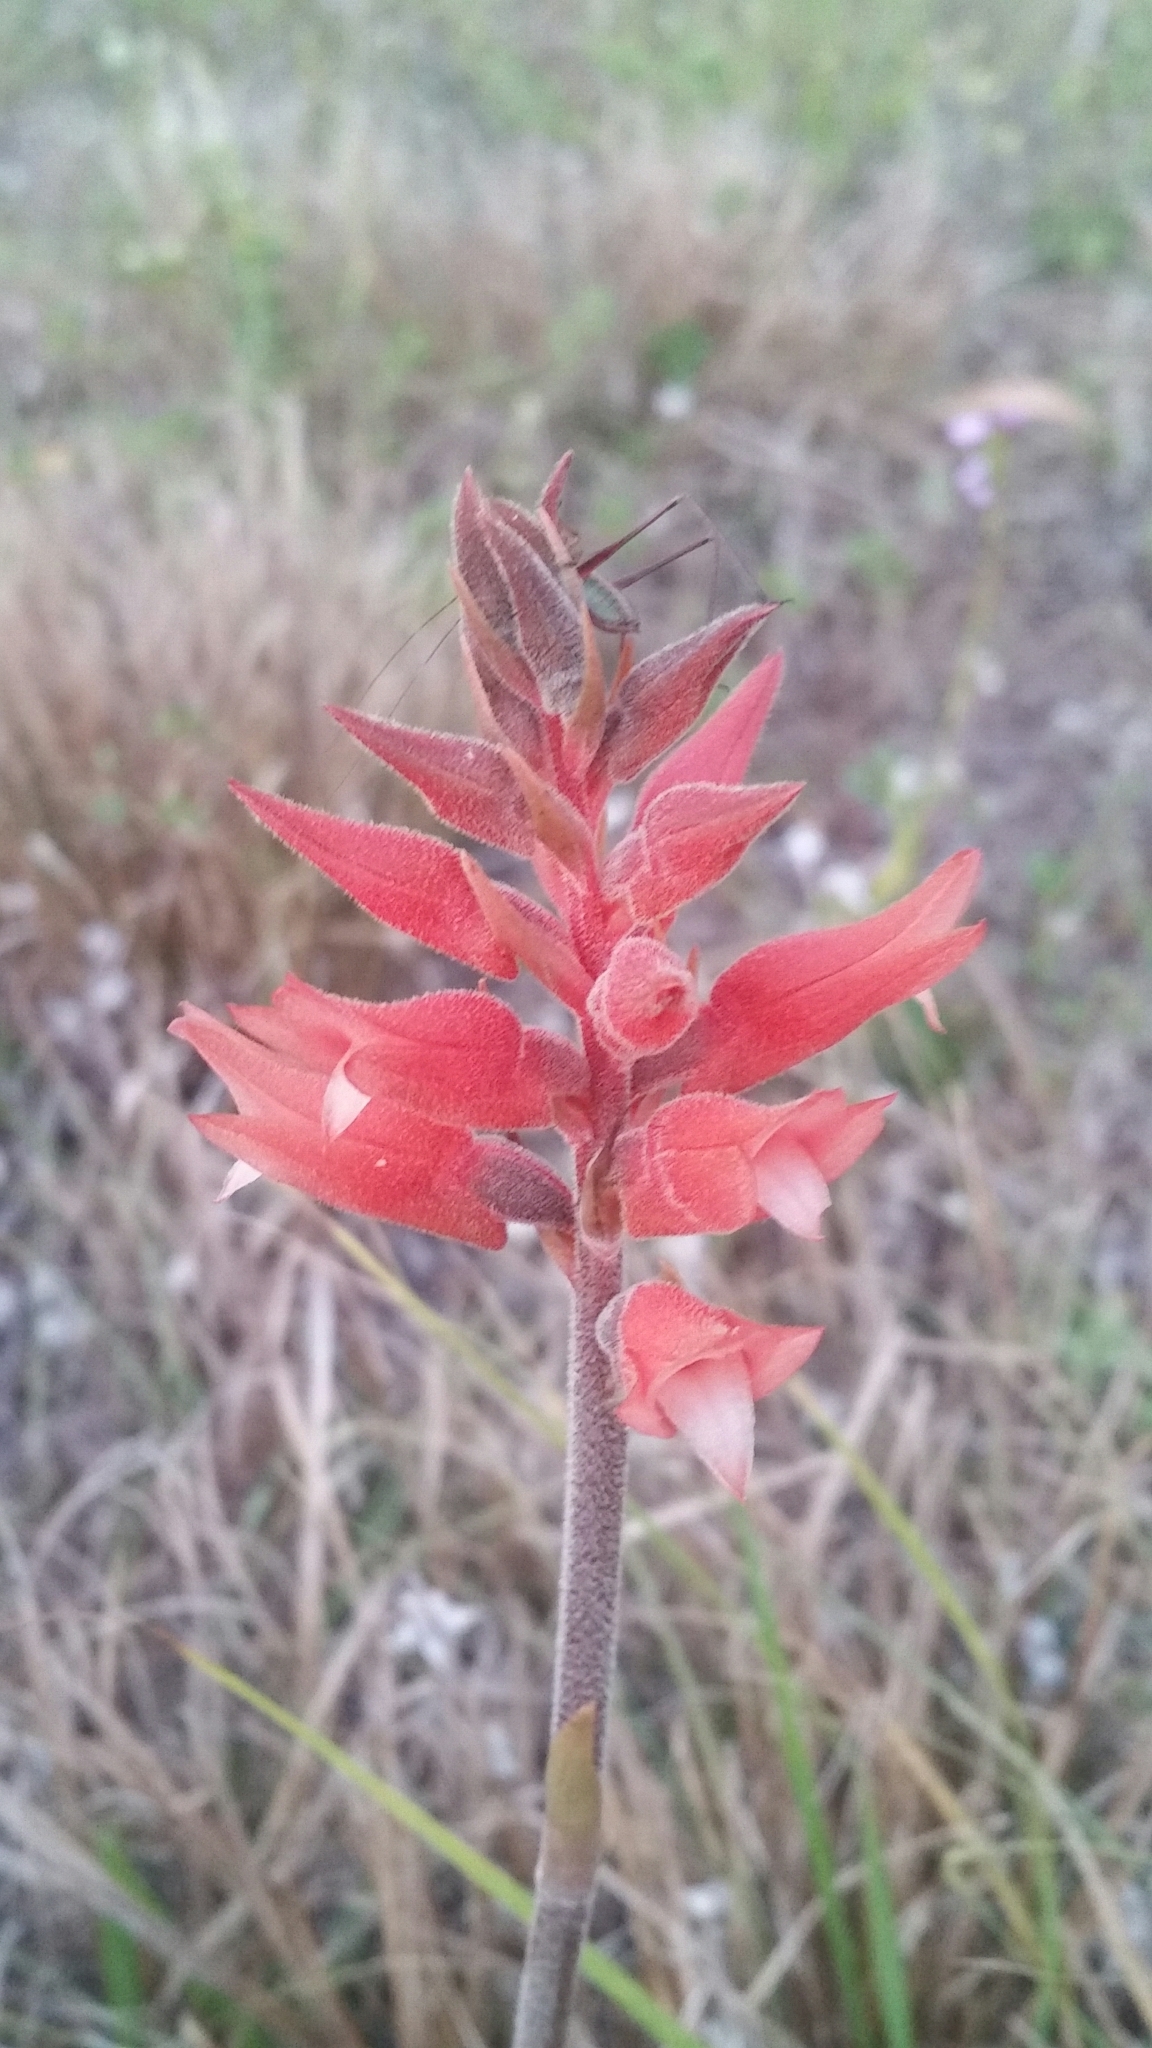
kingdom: Plantae
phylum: Tracheophyta
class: Liliopsida
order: Asparagales
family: Orchidaceae
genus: Sacoila
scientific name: Sacoila lanceolata
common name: Leafless beaked ladiestresses
